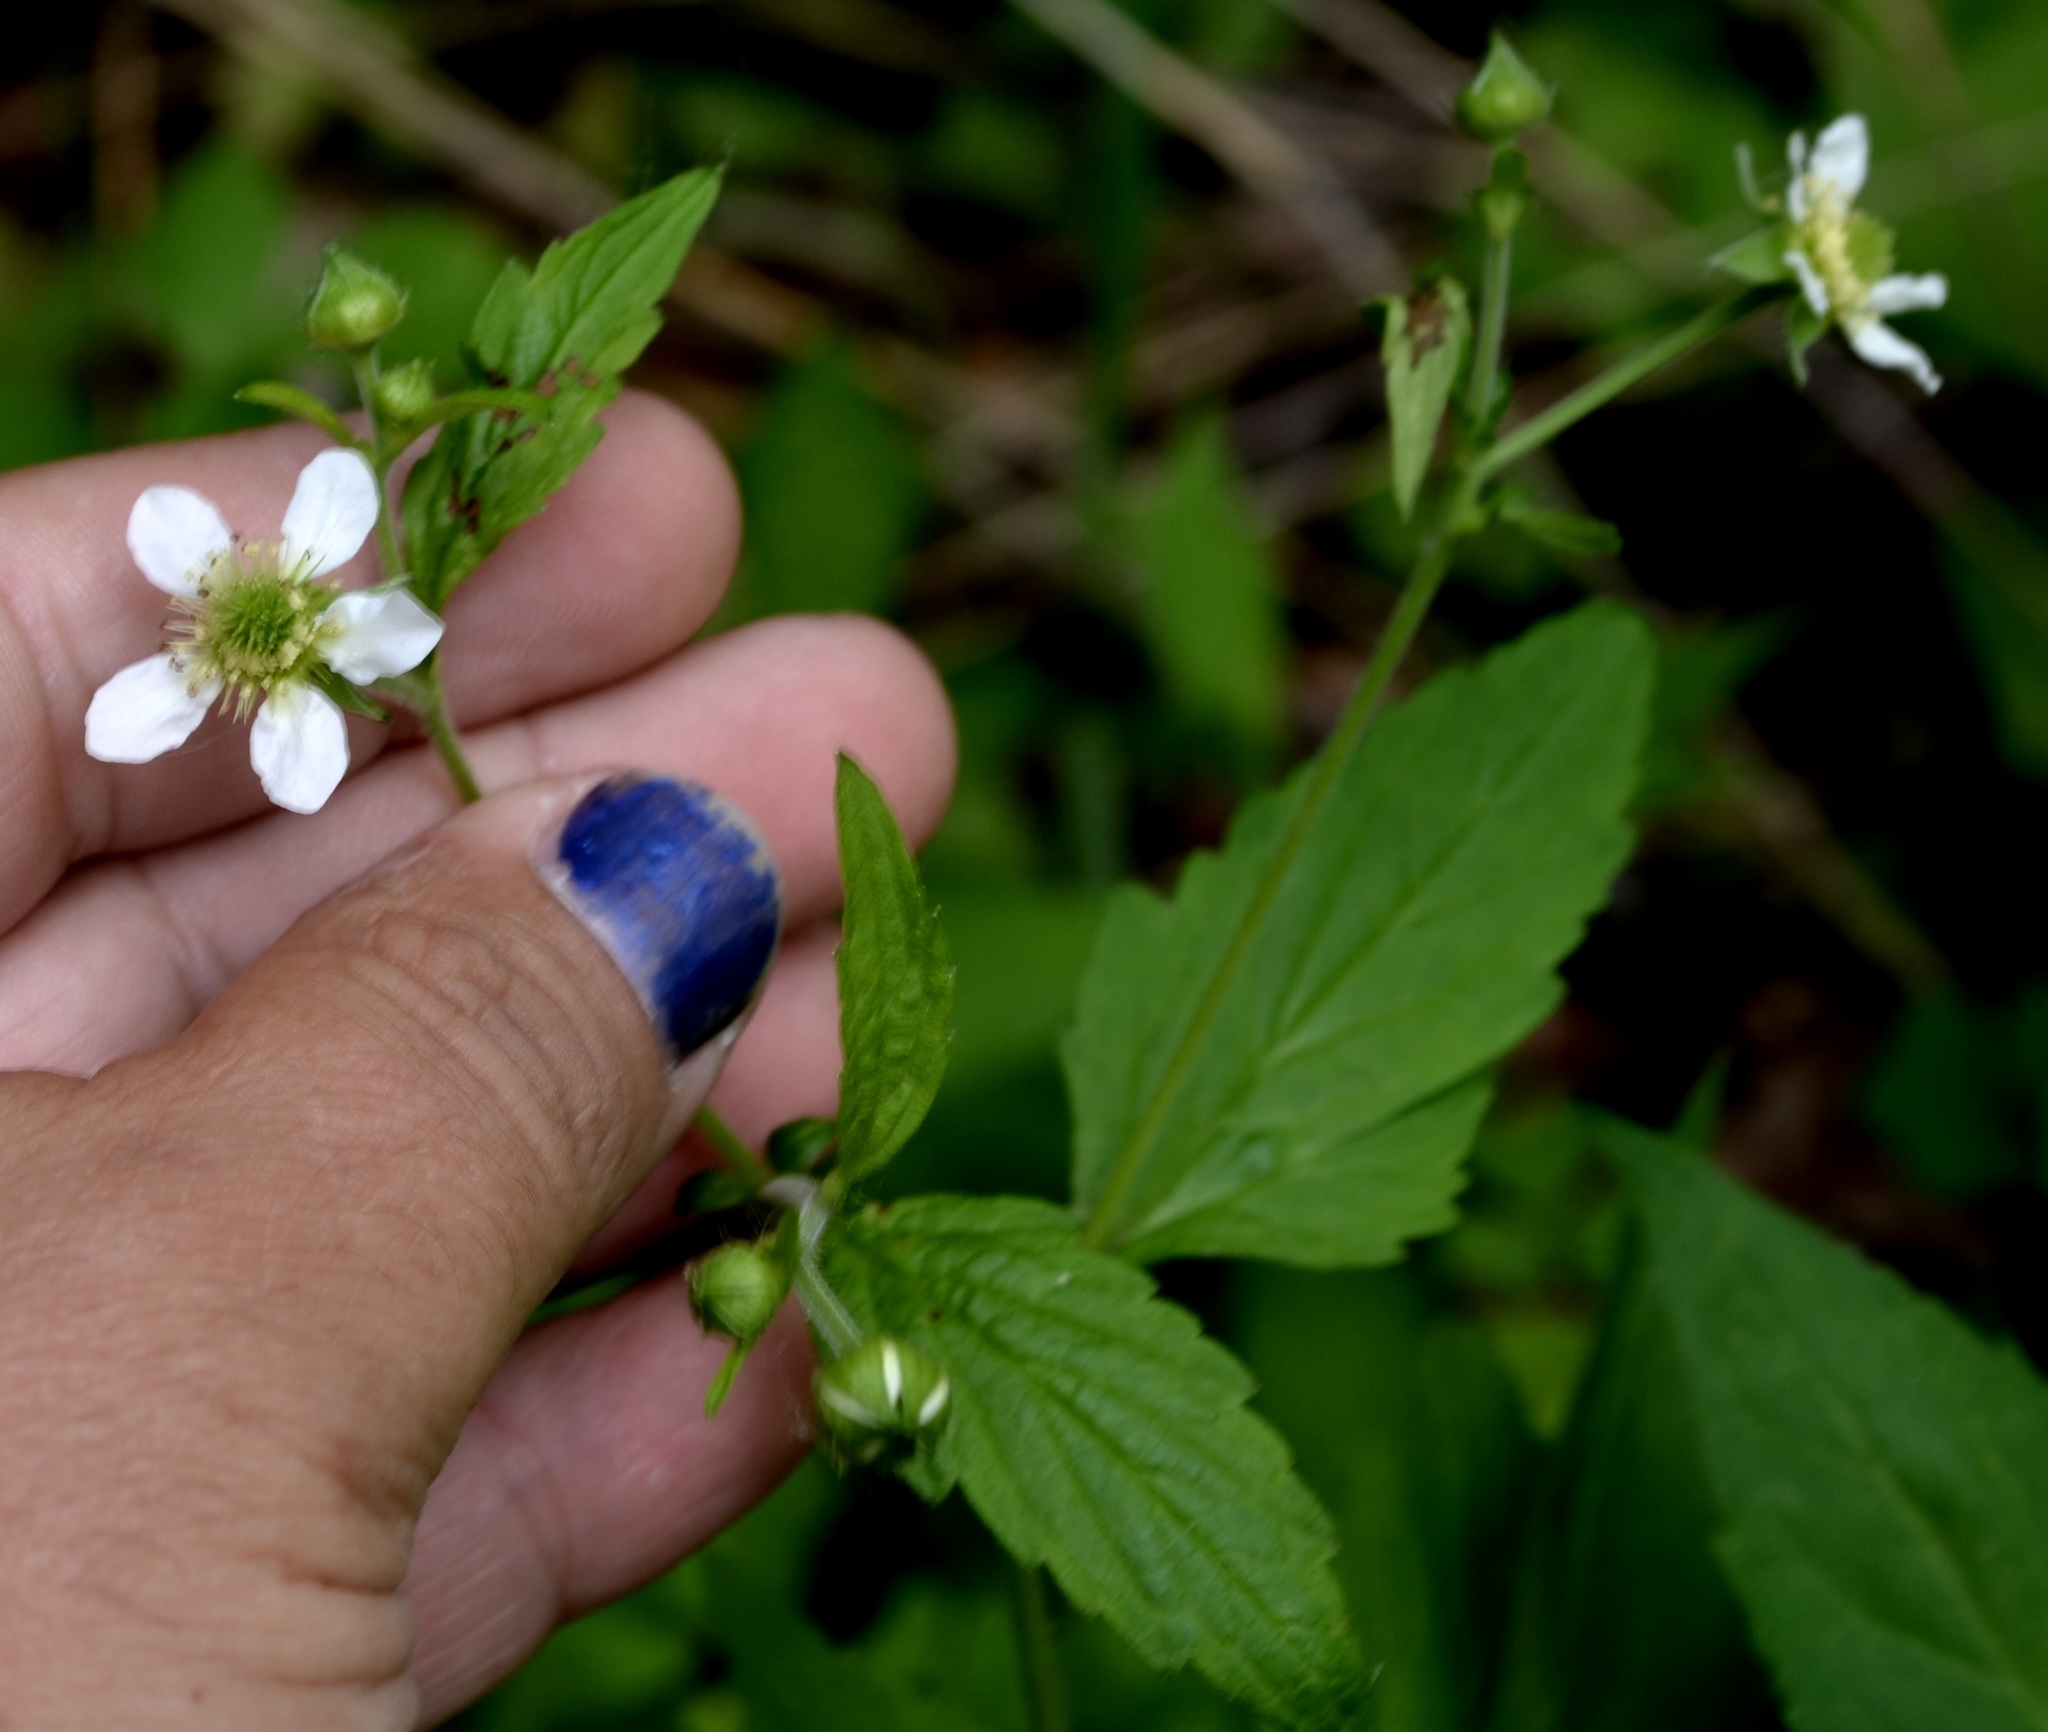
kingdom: Plantae
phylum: Tracheophyta
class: Magnoliopsida
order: Rosales
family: Rosaceae
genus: Geum
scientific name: Geum canadense
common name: White avens
